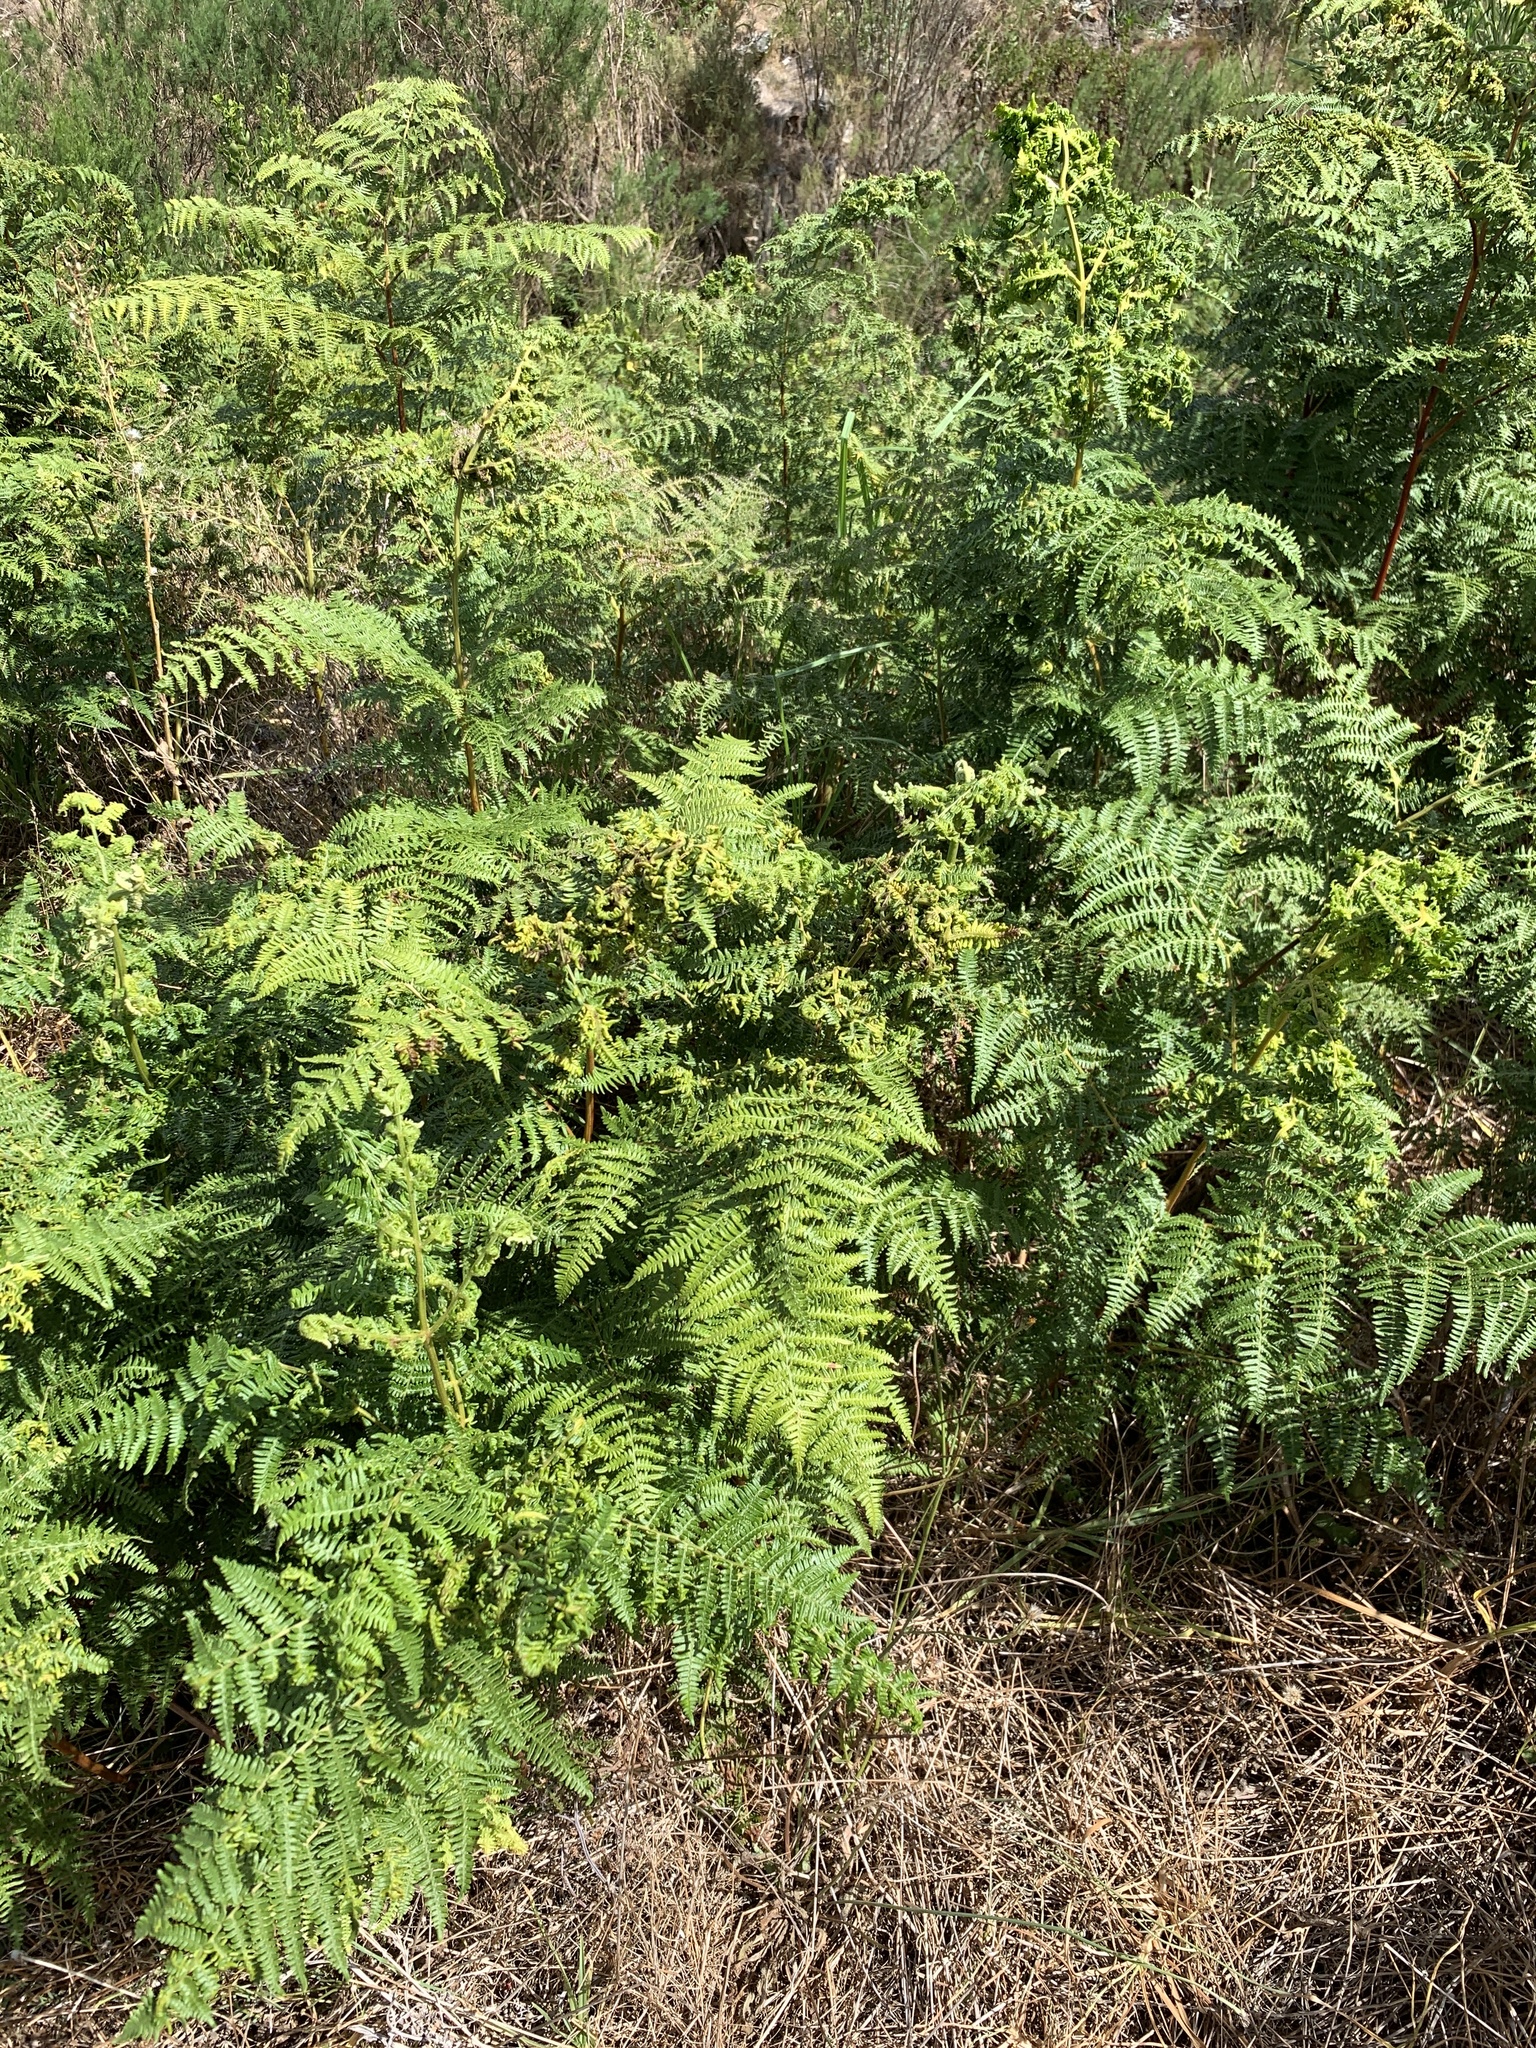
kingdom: Plantae
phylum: Tracheophyta
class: Polypodiopsida
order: Polypodiales
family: Dennstaedtiaceae
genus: Pteridium
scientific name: Pteridium aquilinum
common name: Bracken
